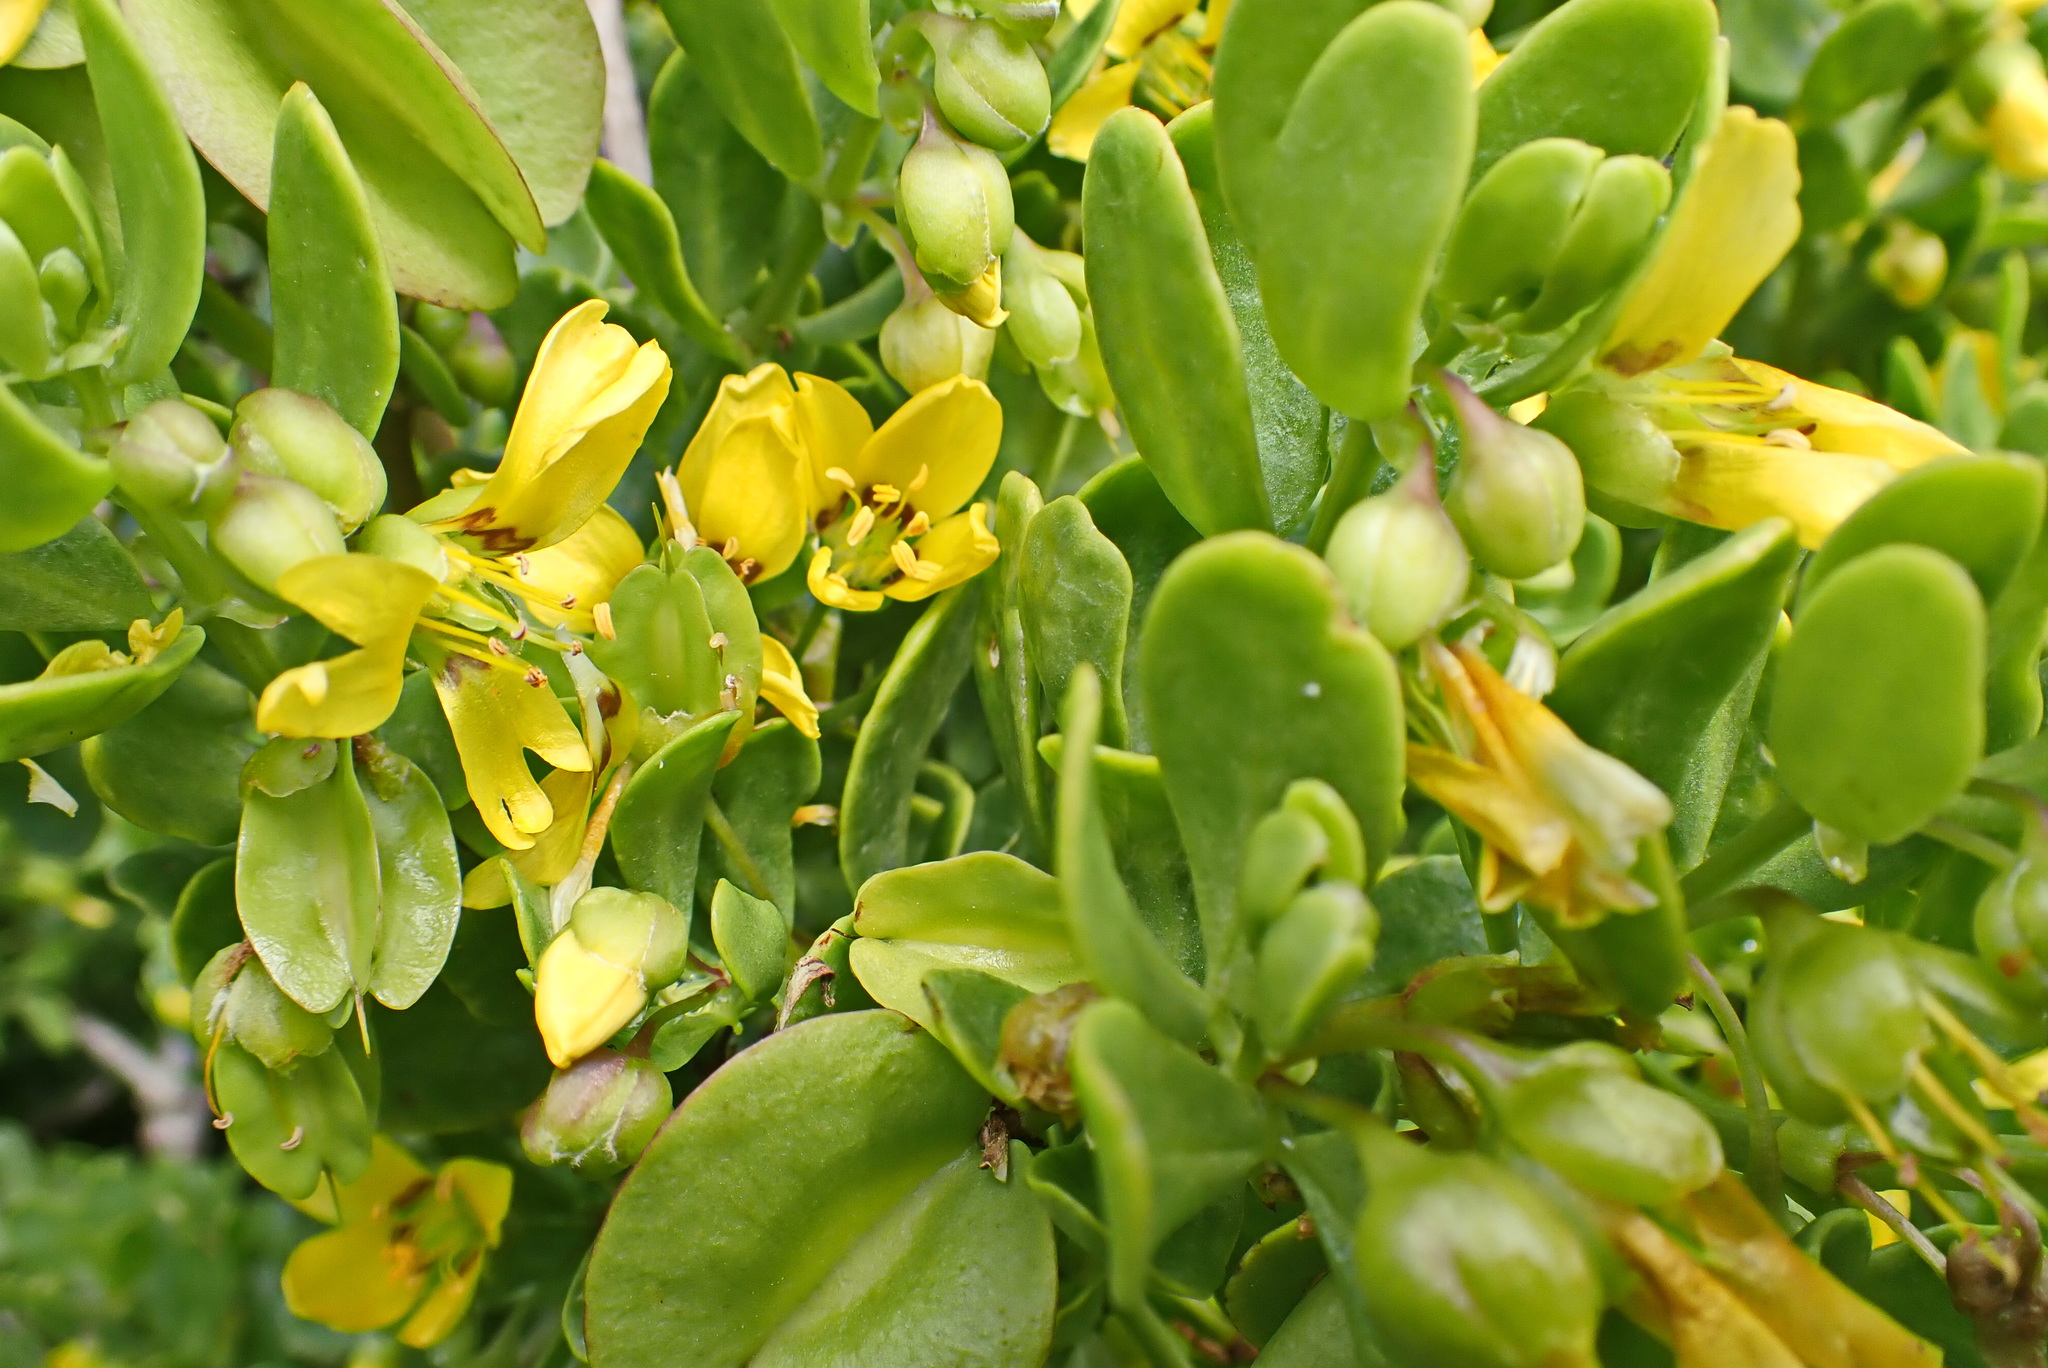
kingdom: Plantae
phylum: Tracheophyta
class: Magnoliopsida
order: Zygophyllales
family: Zygophyllaceae
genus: Roepera
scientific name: Roepera morgsana
